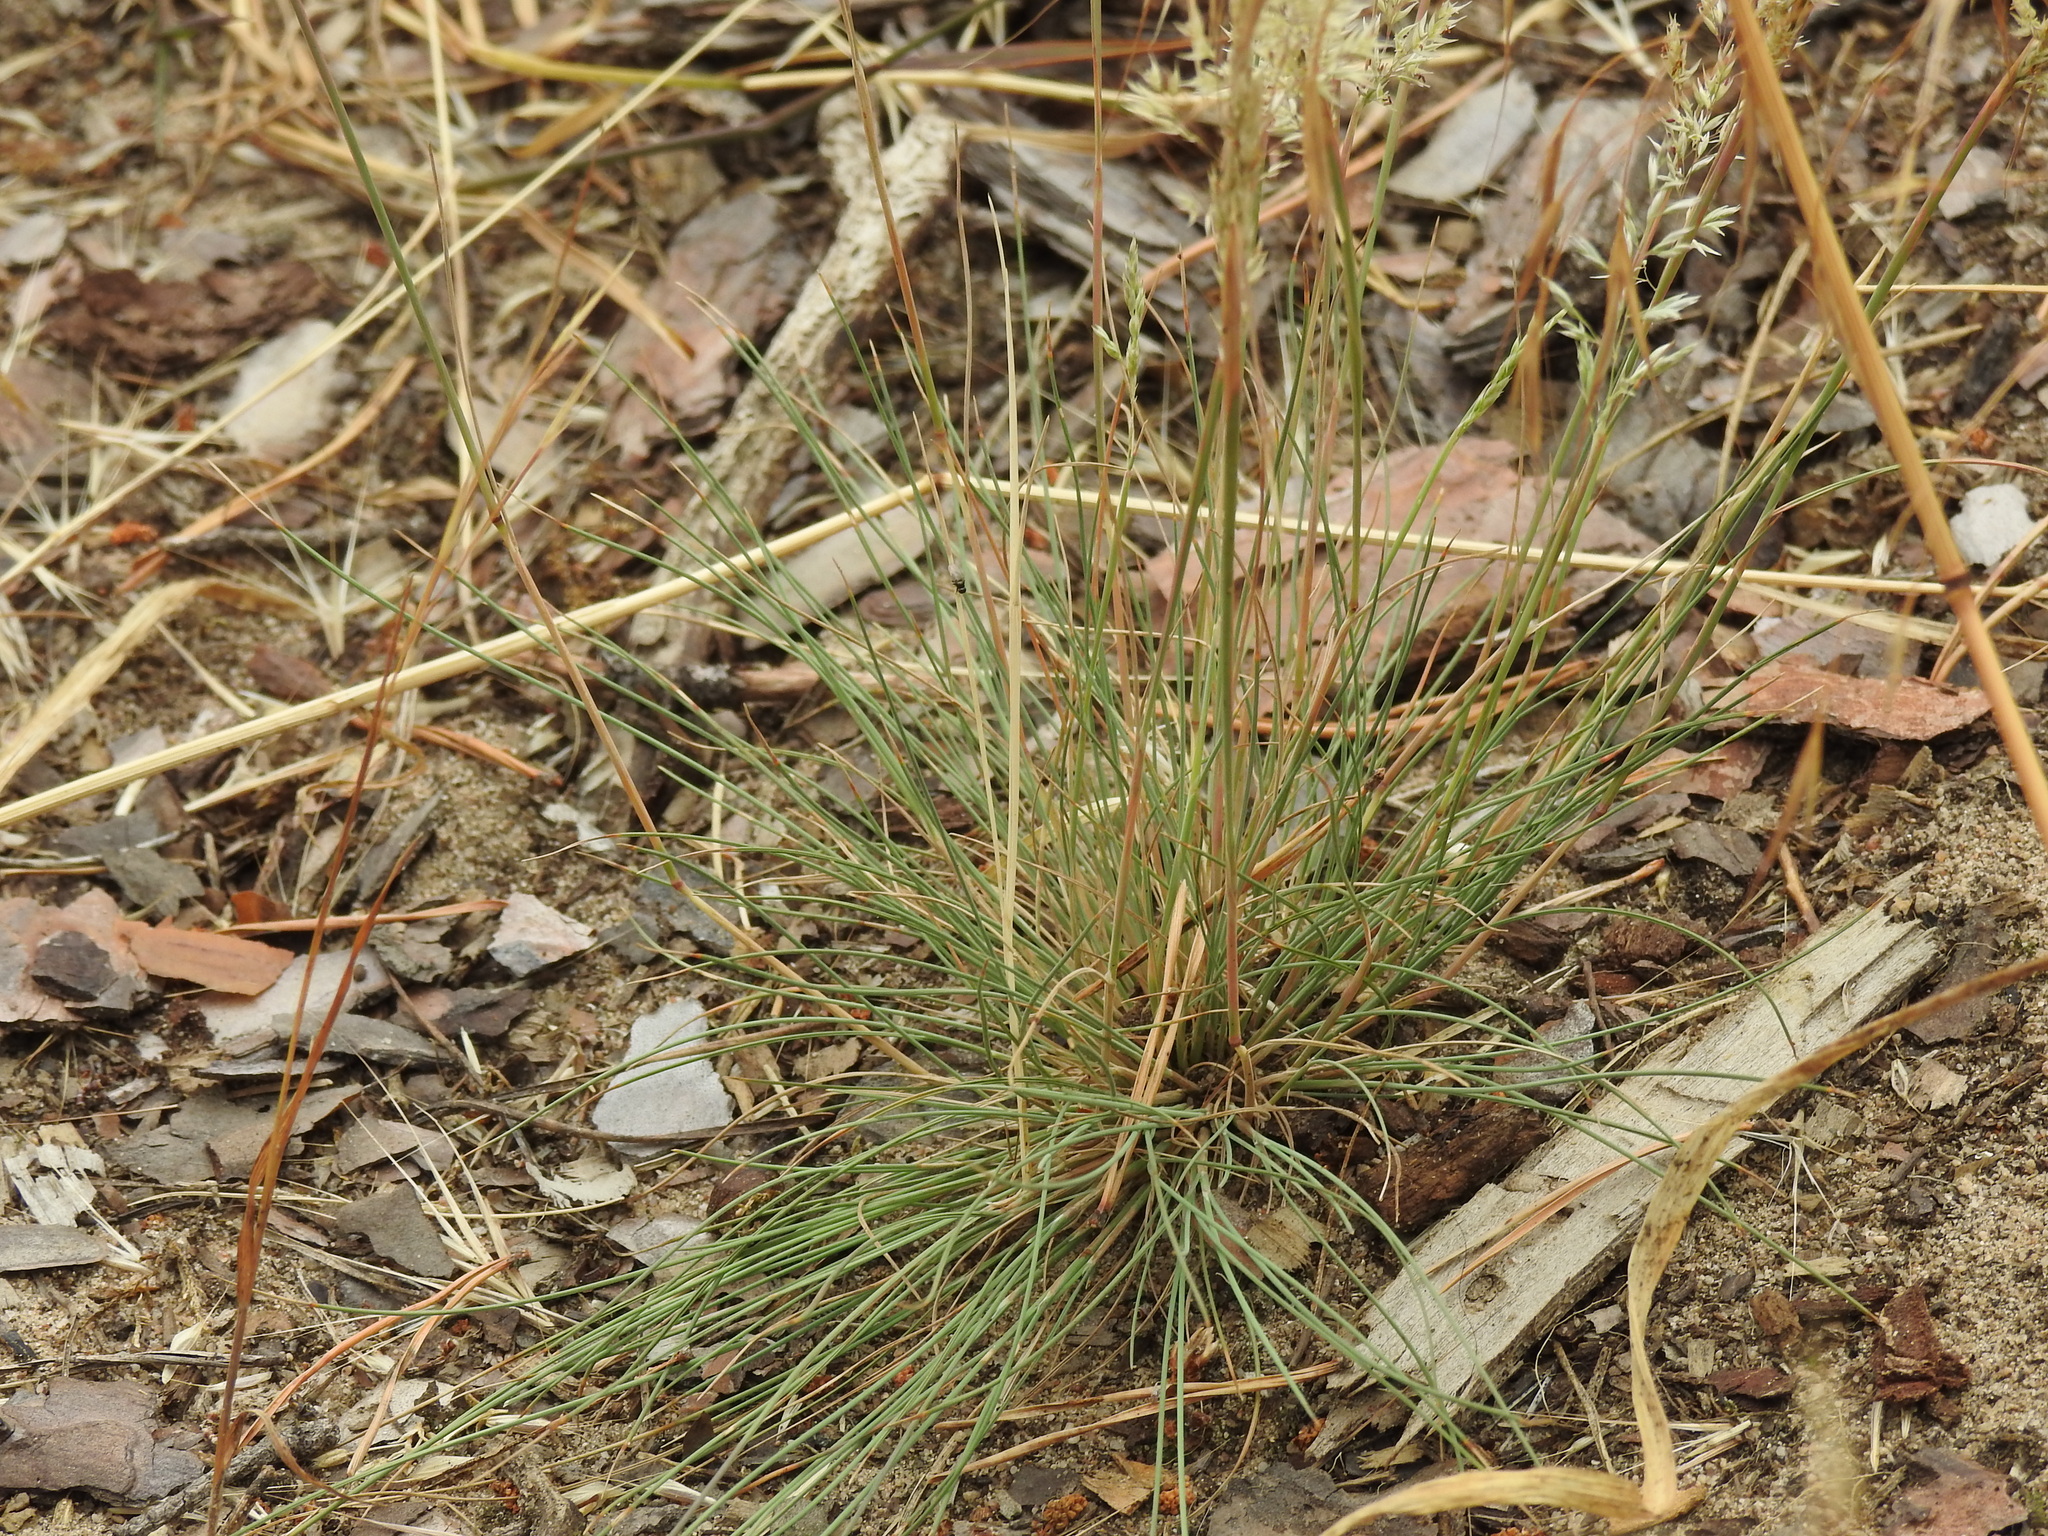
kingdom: Plantae
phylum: Tracheophyta
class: Liliopsida
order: Poales
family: Poaceae
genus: Corynephorus
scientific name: Corynephorus canescens
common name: Grey hair-grass
